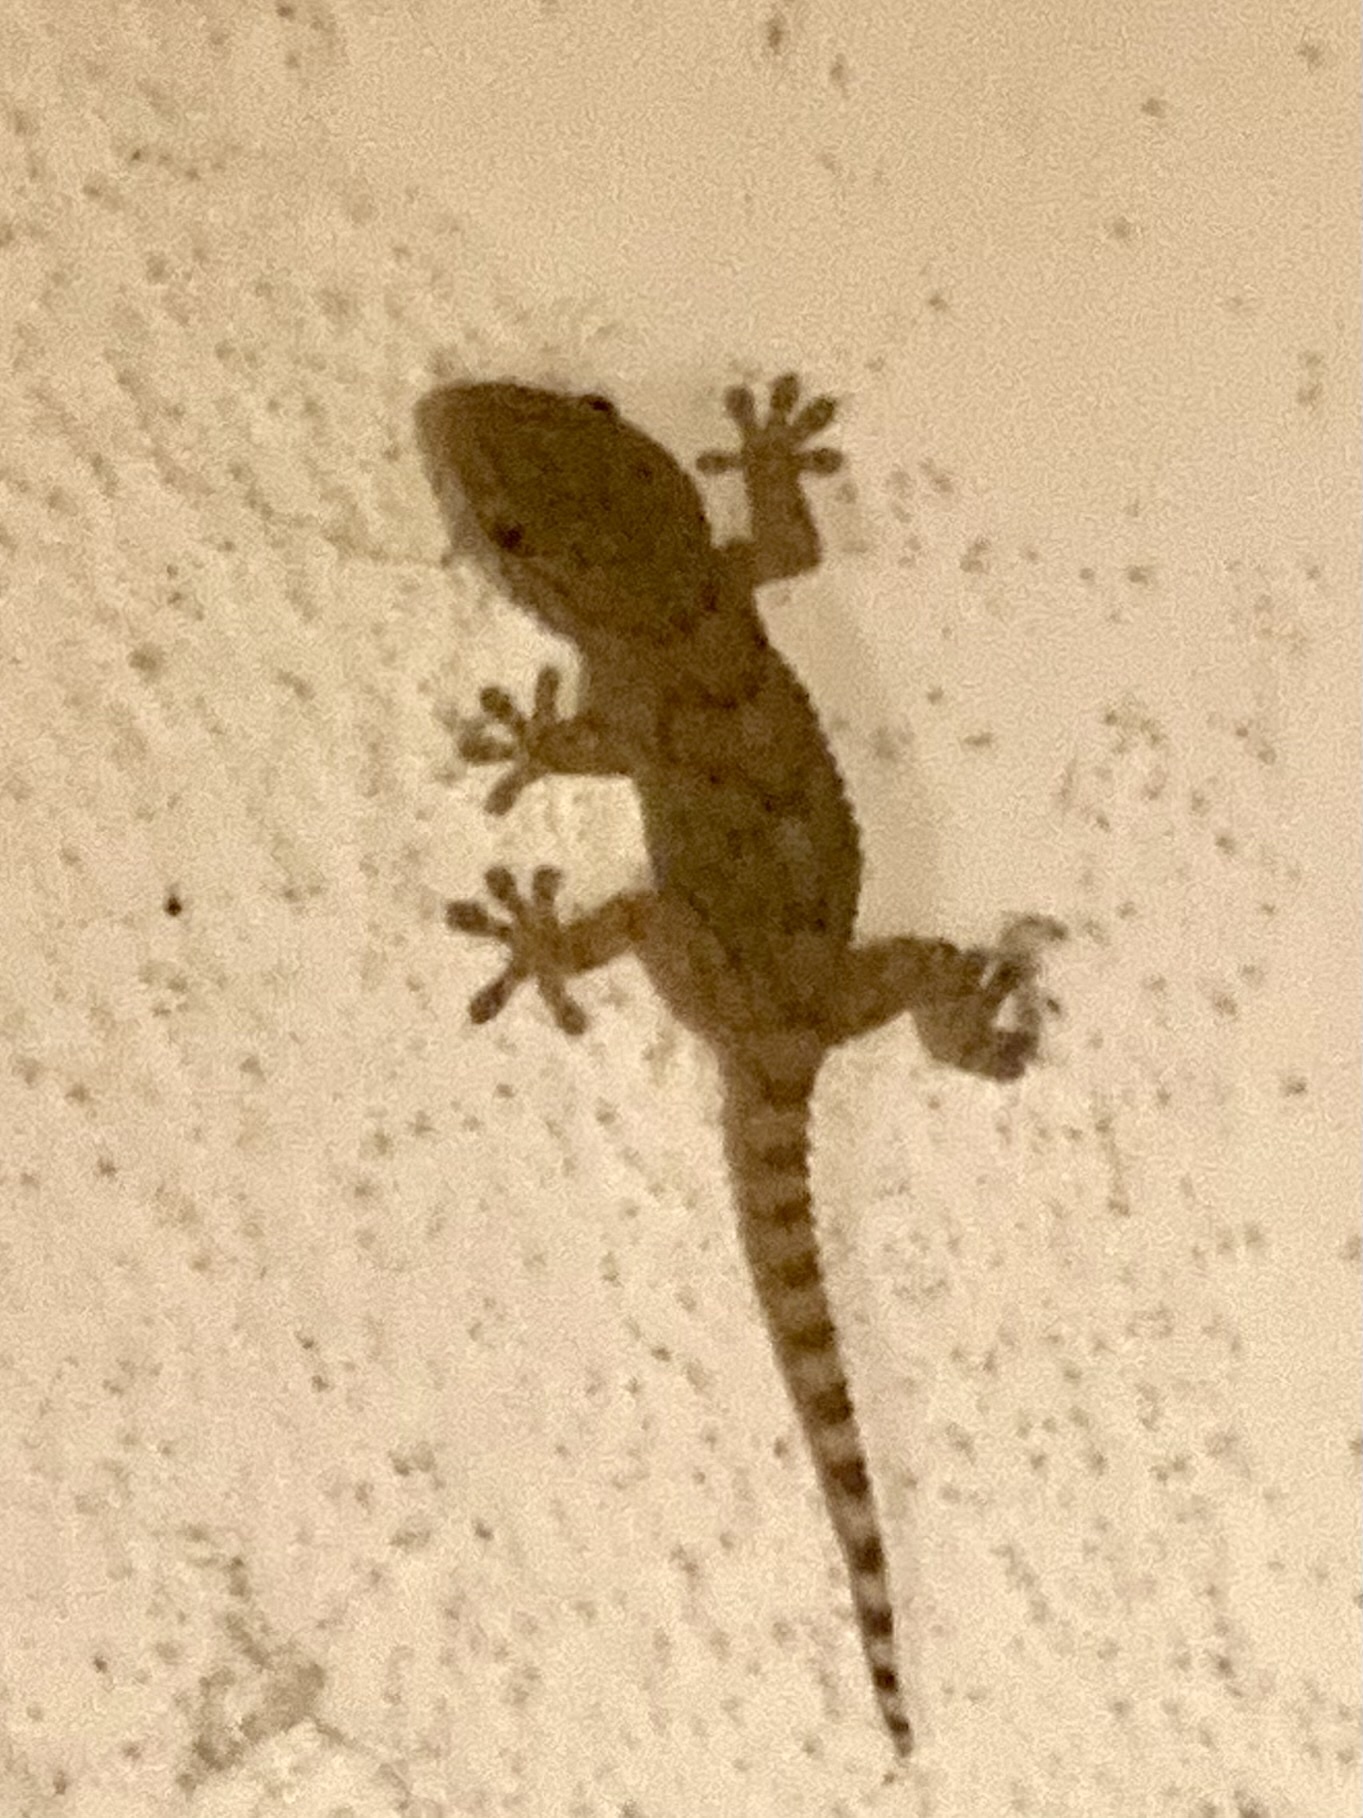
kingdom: Animalia
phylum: Chordata
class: Squamata
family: Phyllodactylidae
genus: Tarentola
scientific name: Tarentola mauritanica
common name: Moorish gecko
